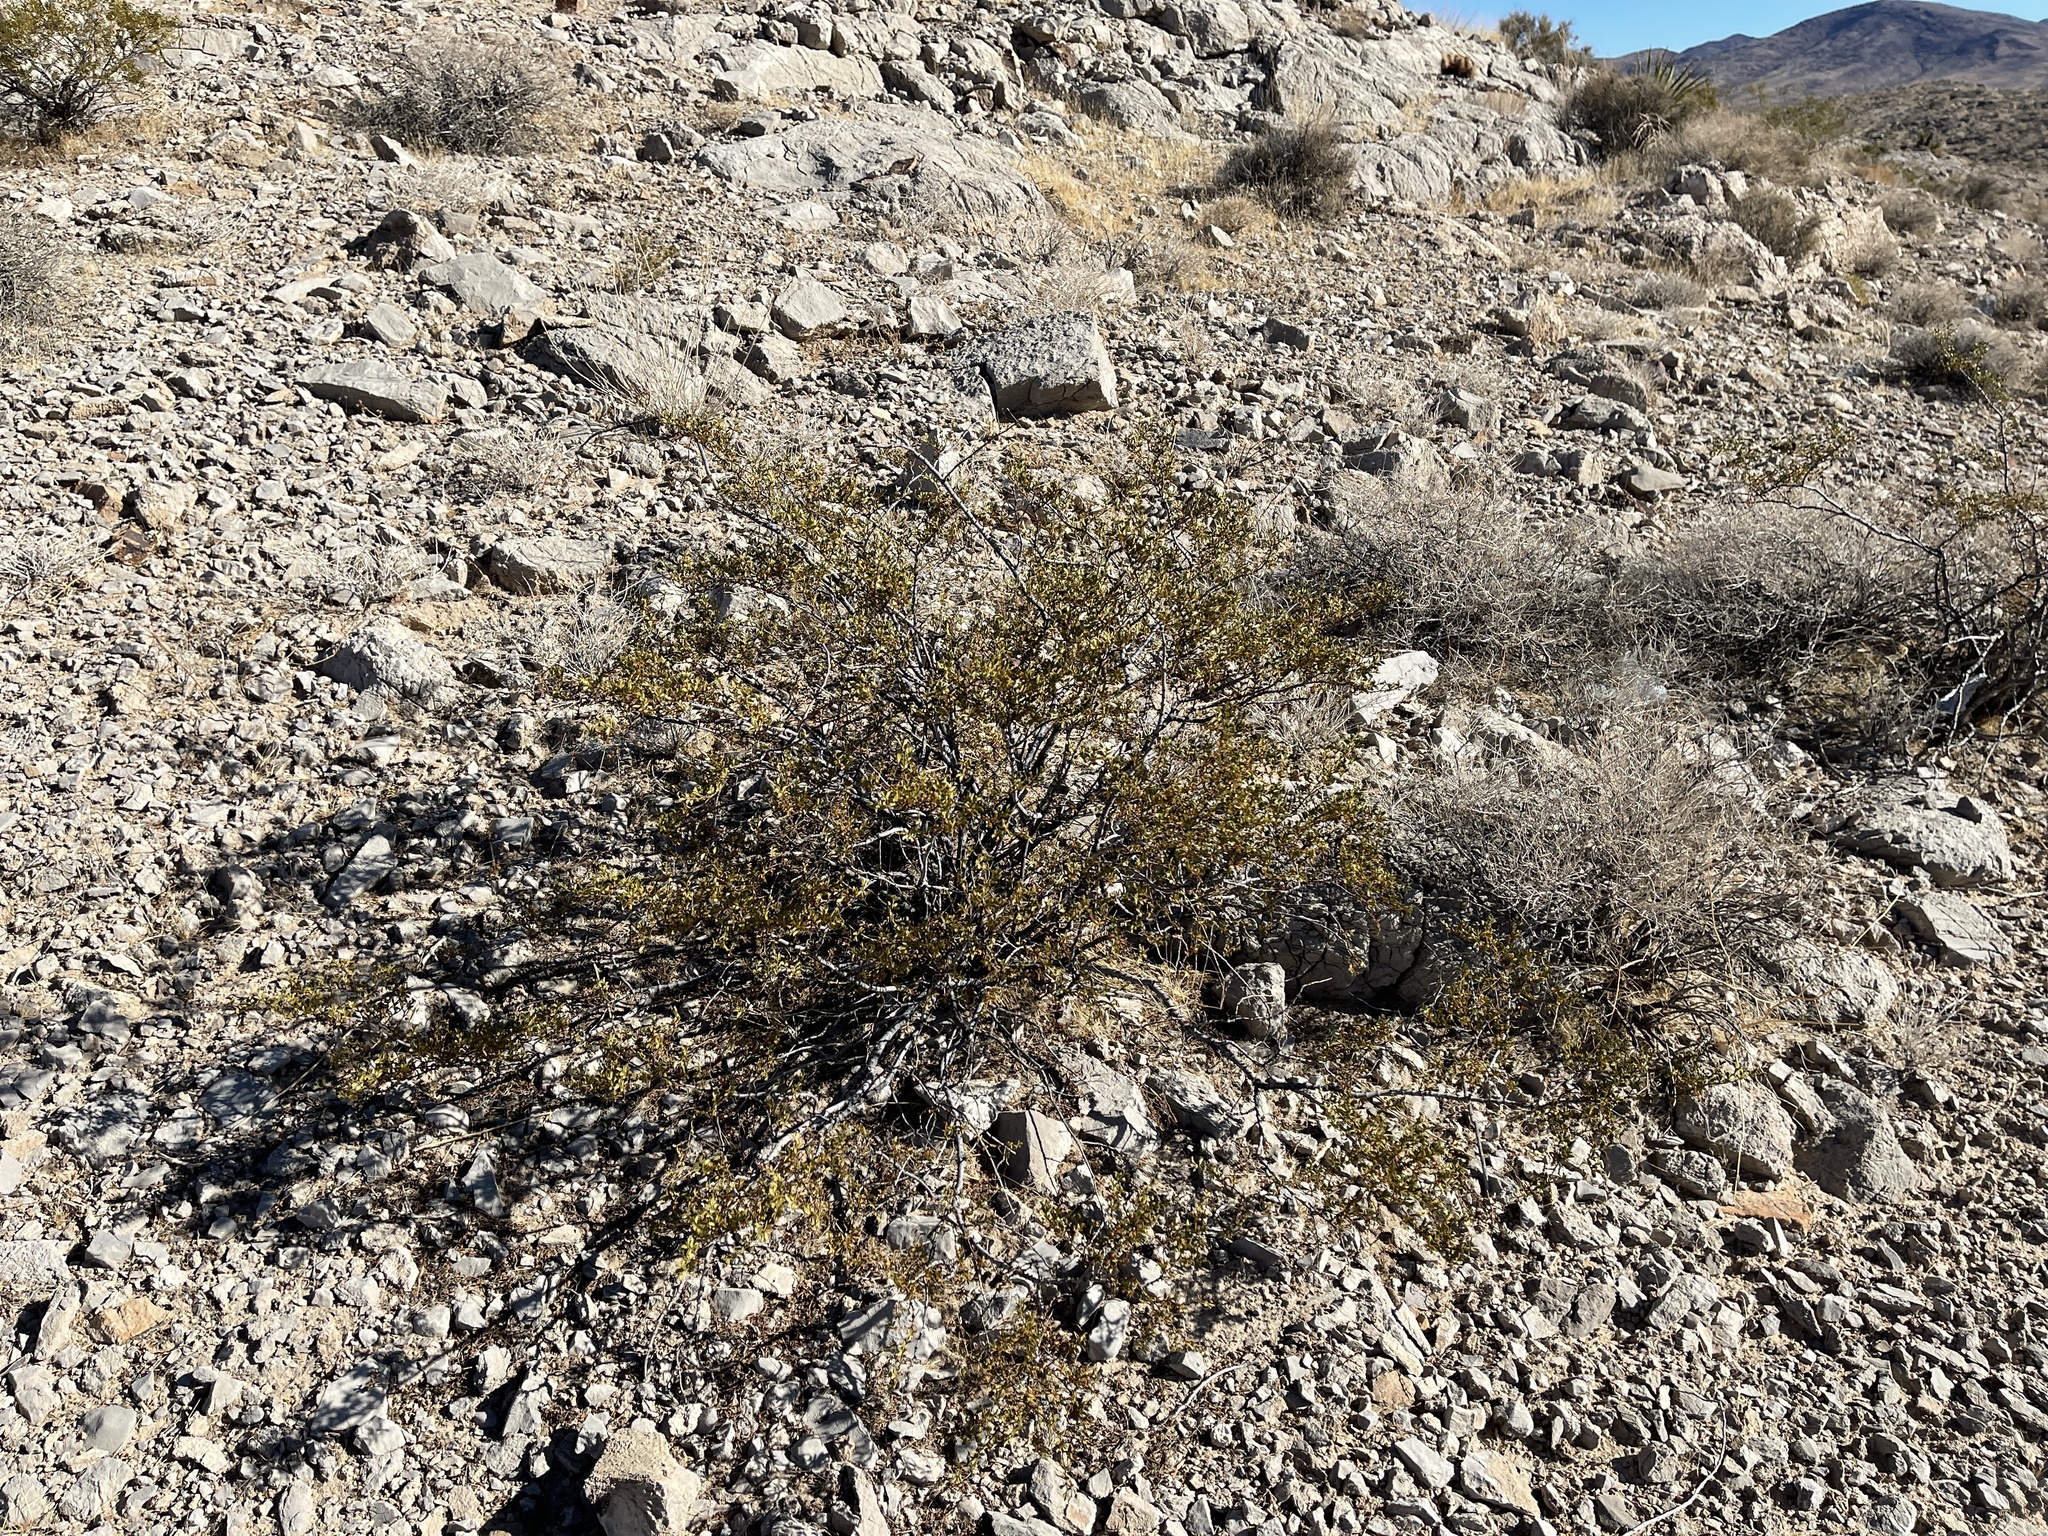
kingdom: Plantae
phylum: Tracheophyta
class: Magnoliopsida
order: Zygophyllales
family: Zygophyllaceae
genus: Larrea
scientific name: Larrea tridentata
